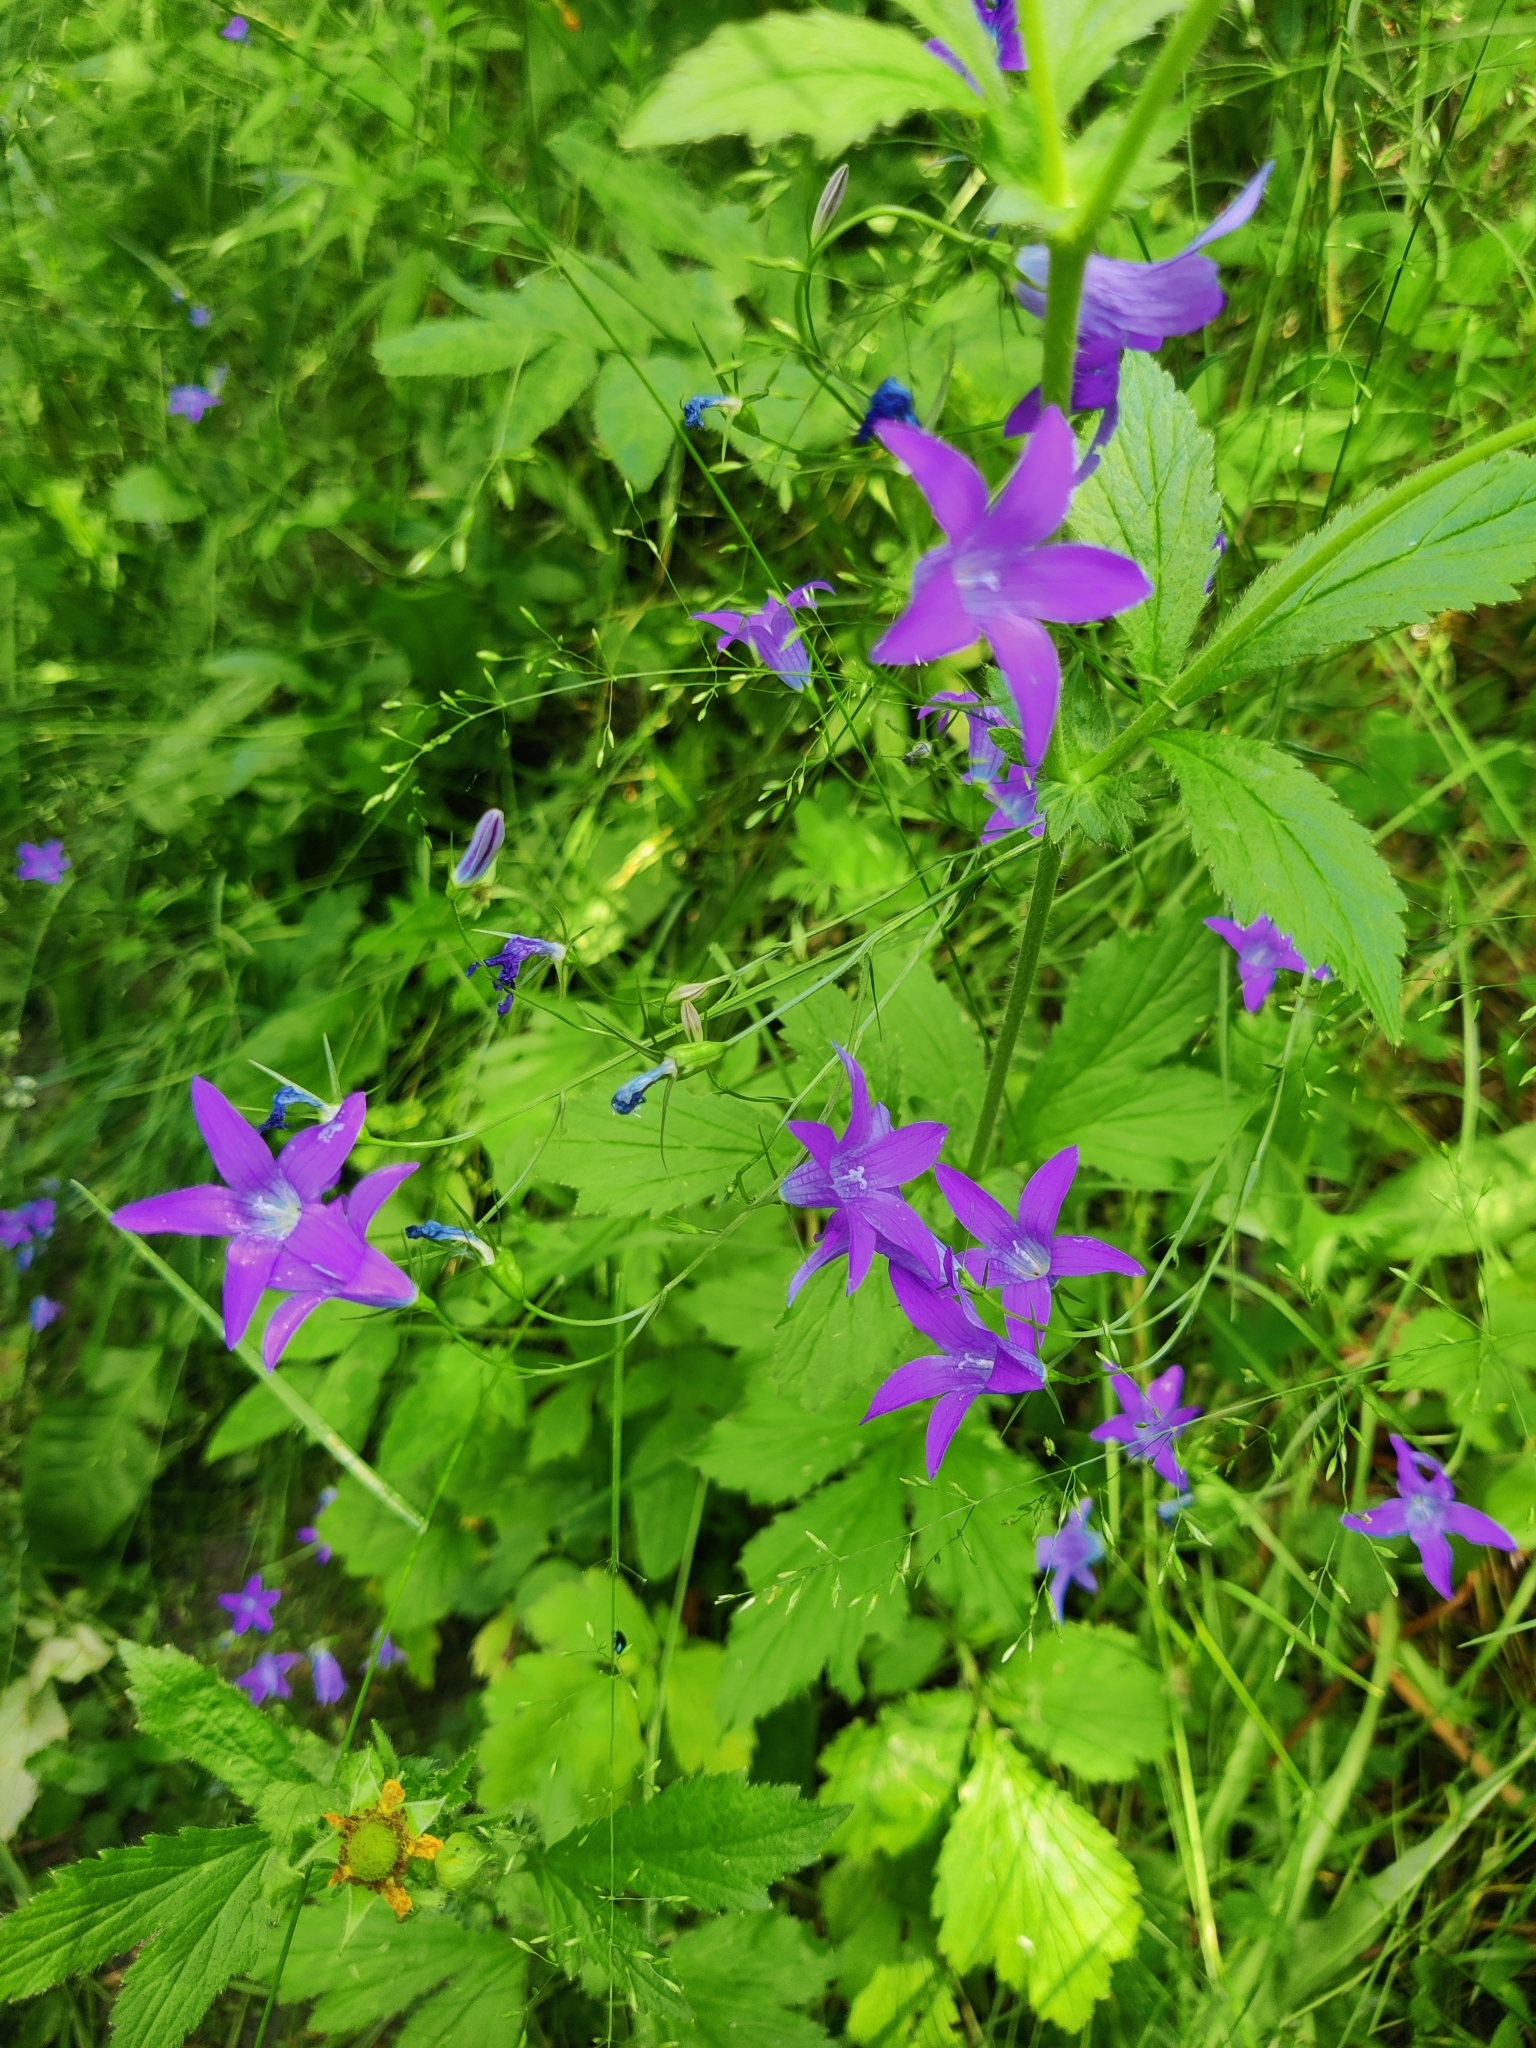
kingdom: Plantae
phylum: Tracheophyta
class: Magnoliopsida
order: Asterales
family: Campanulaceae
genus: Campanula
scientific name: Campanula patula
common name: Spreading bellflower
